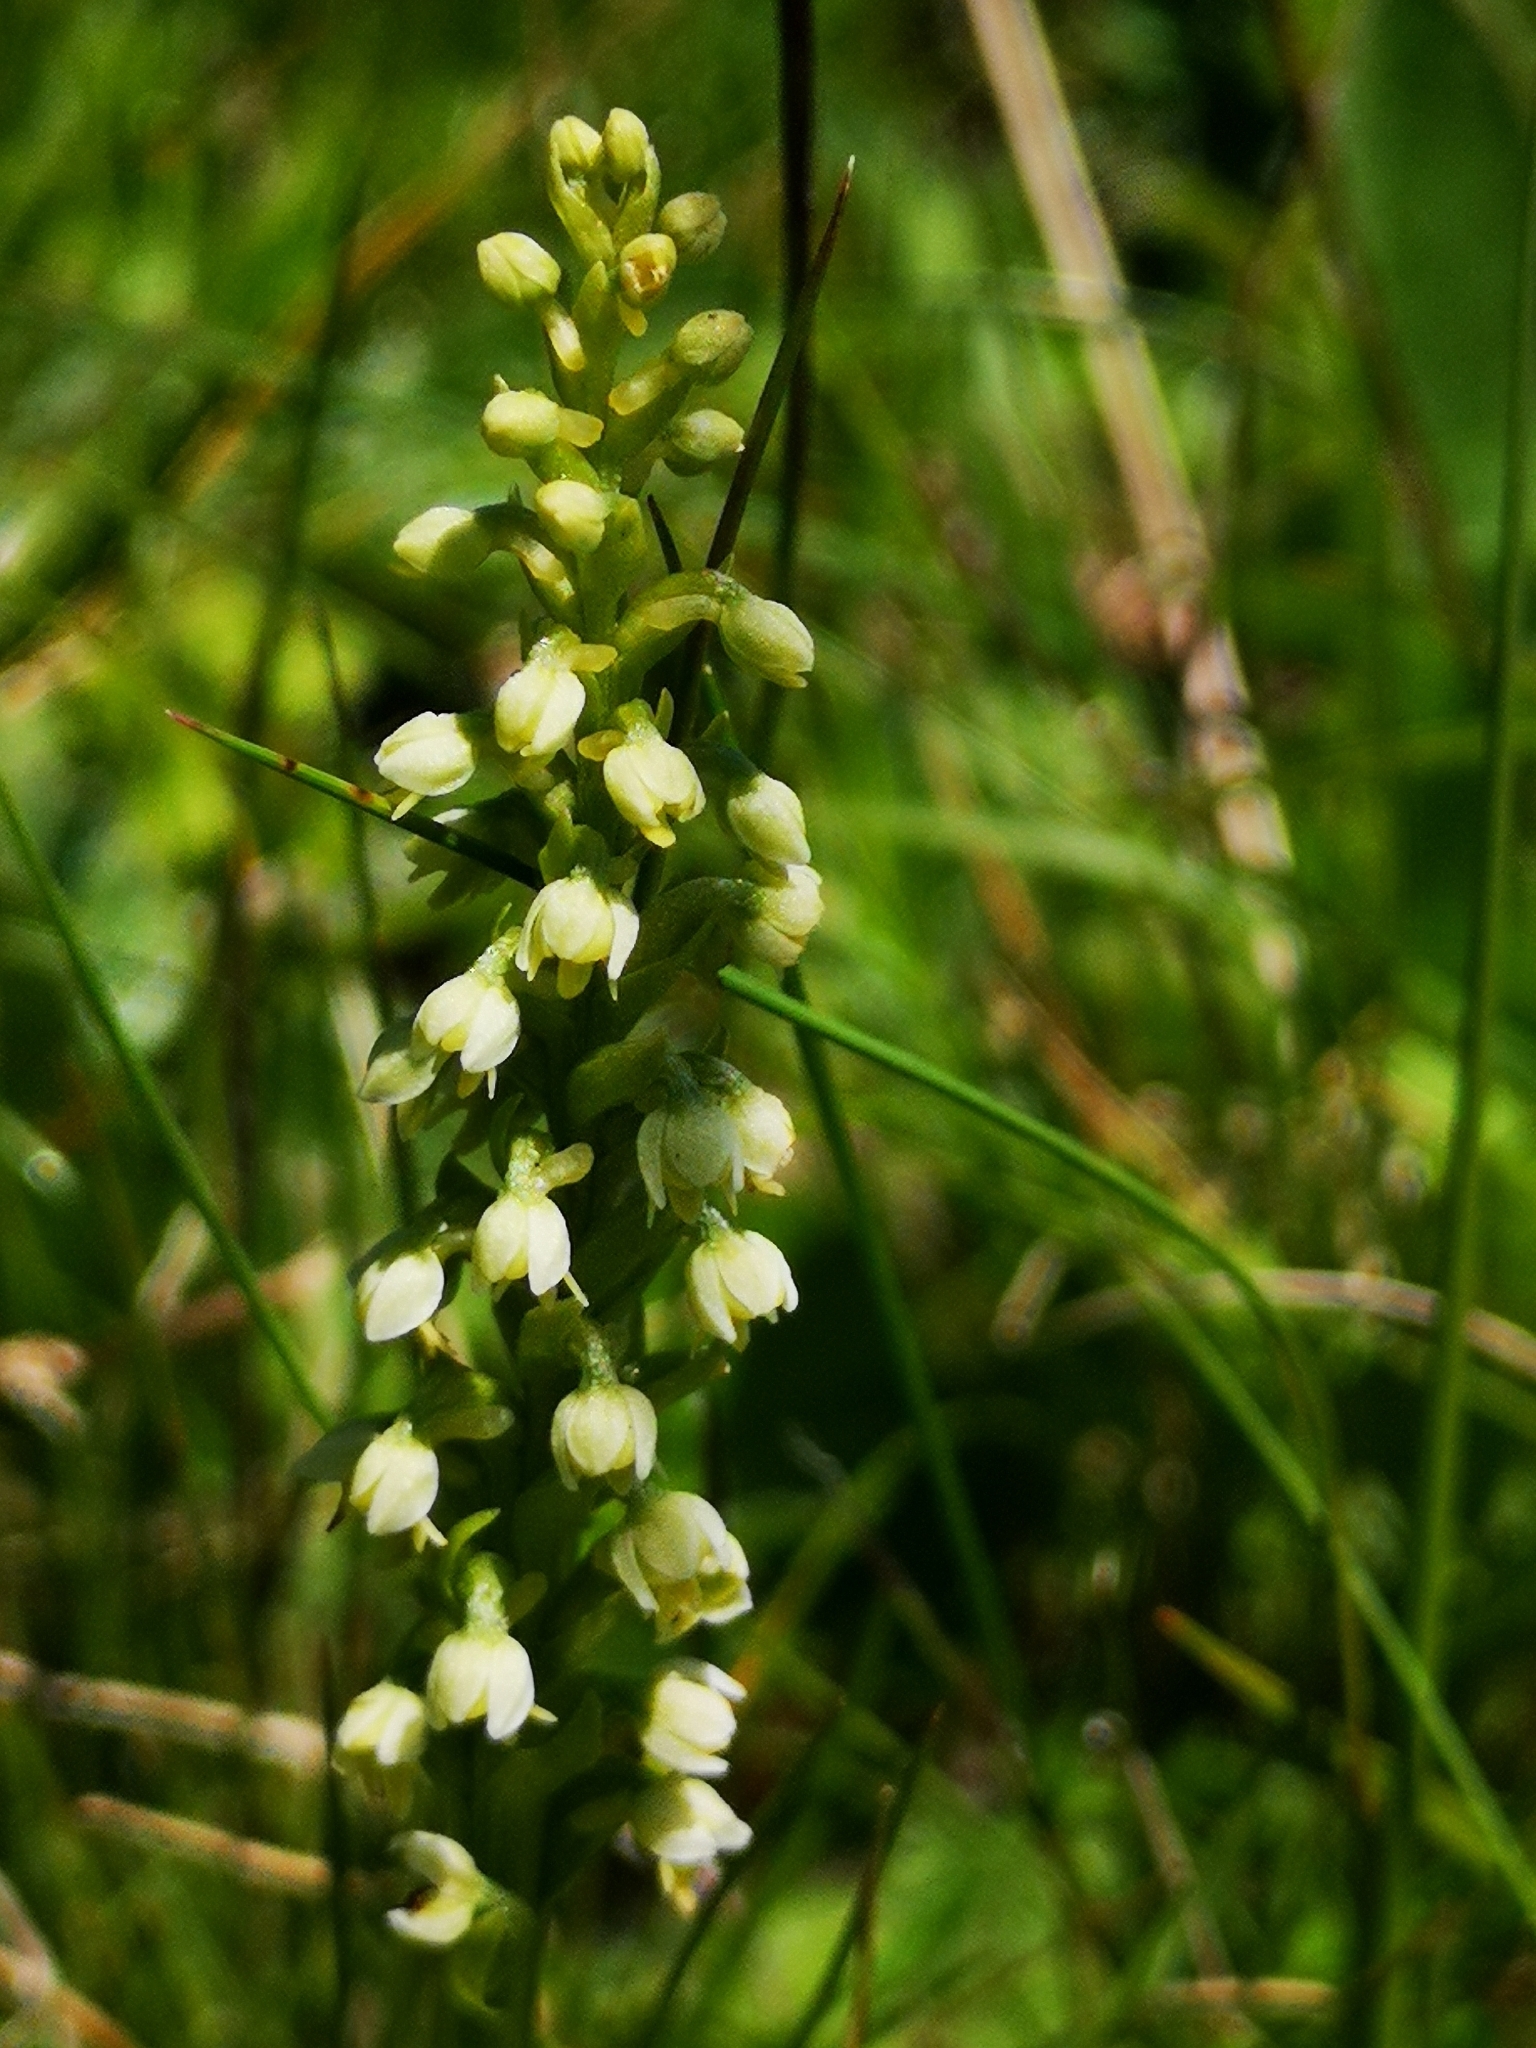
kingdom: Plantae
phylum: Tracheophyta
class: Liliopsida
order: Asparagales
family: Orchidaceae
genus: Pseudorchis
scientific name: Pseudorchis albida
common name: Small-white orchid
